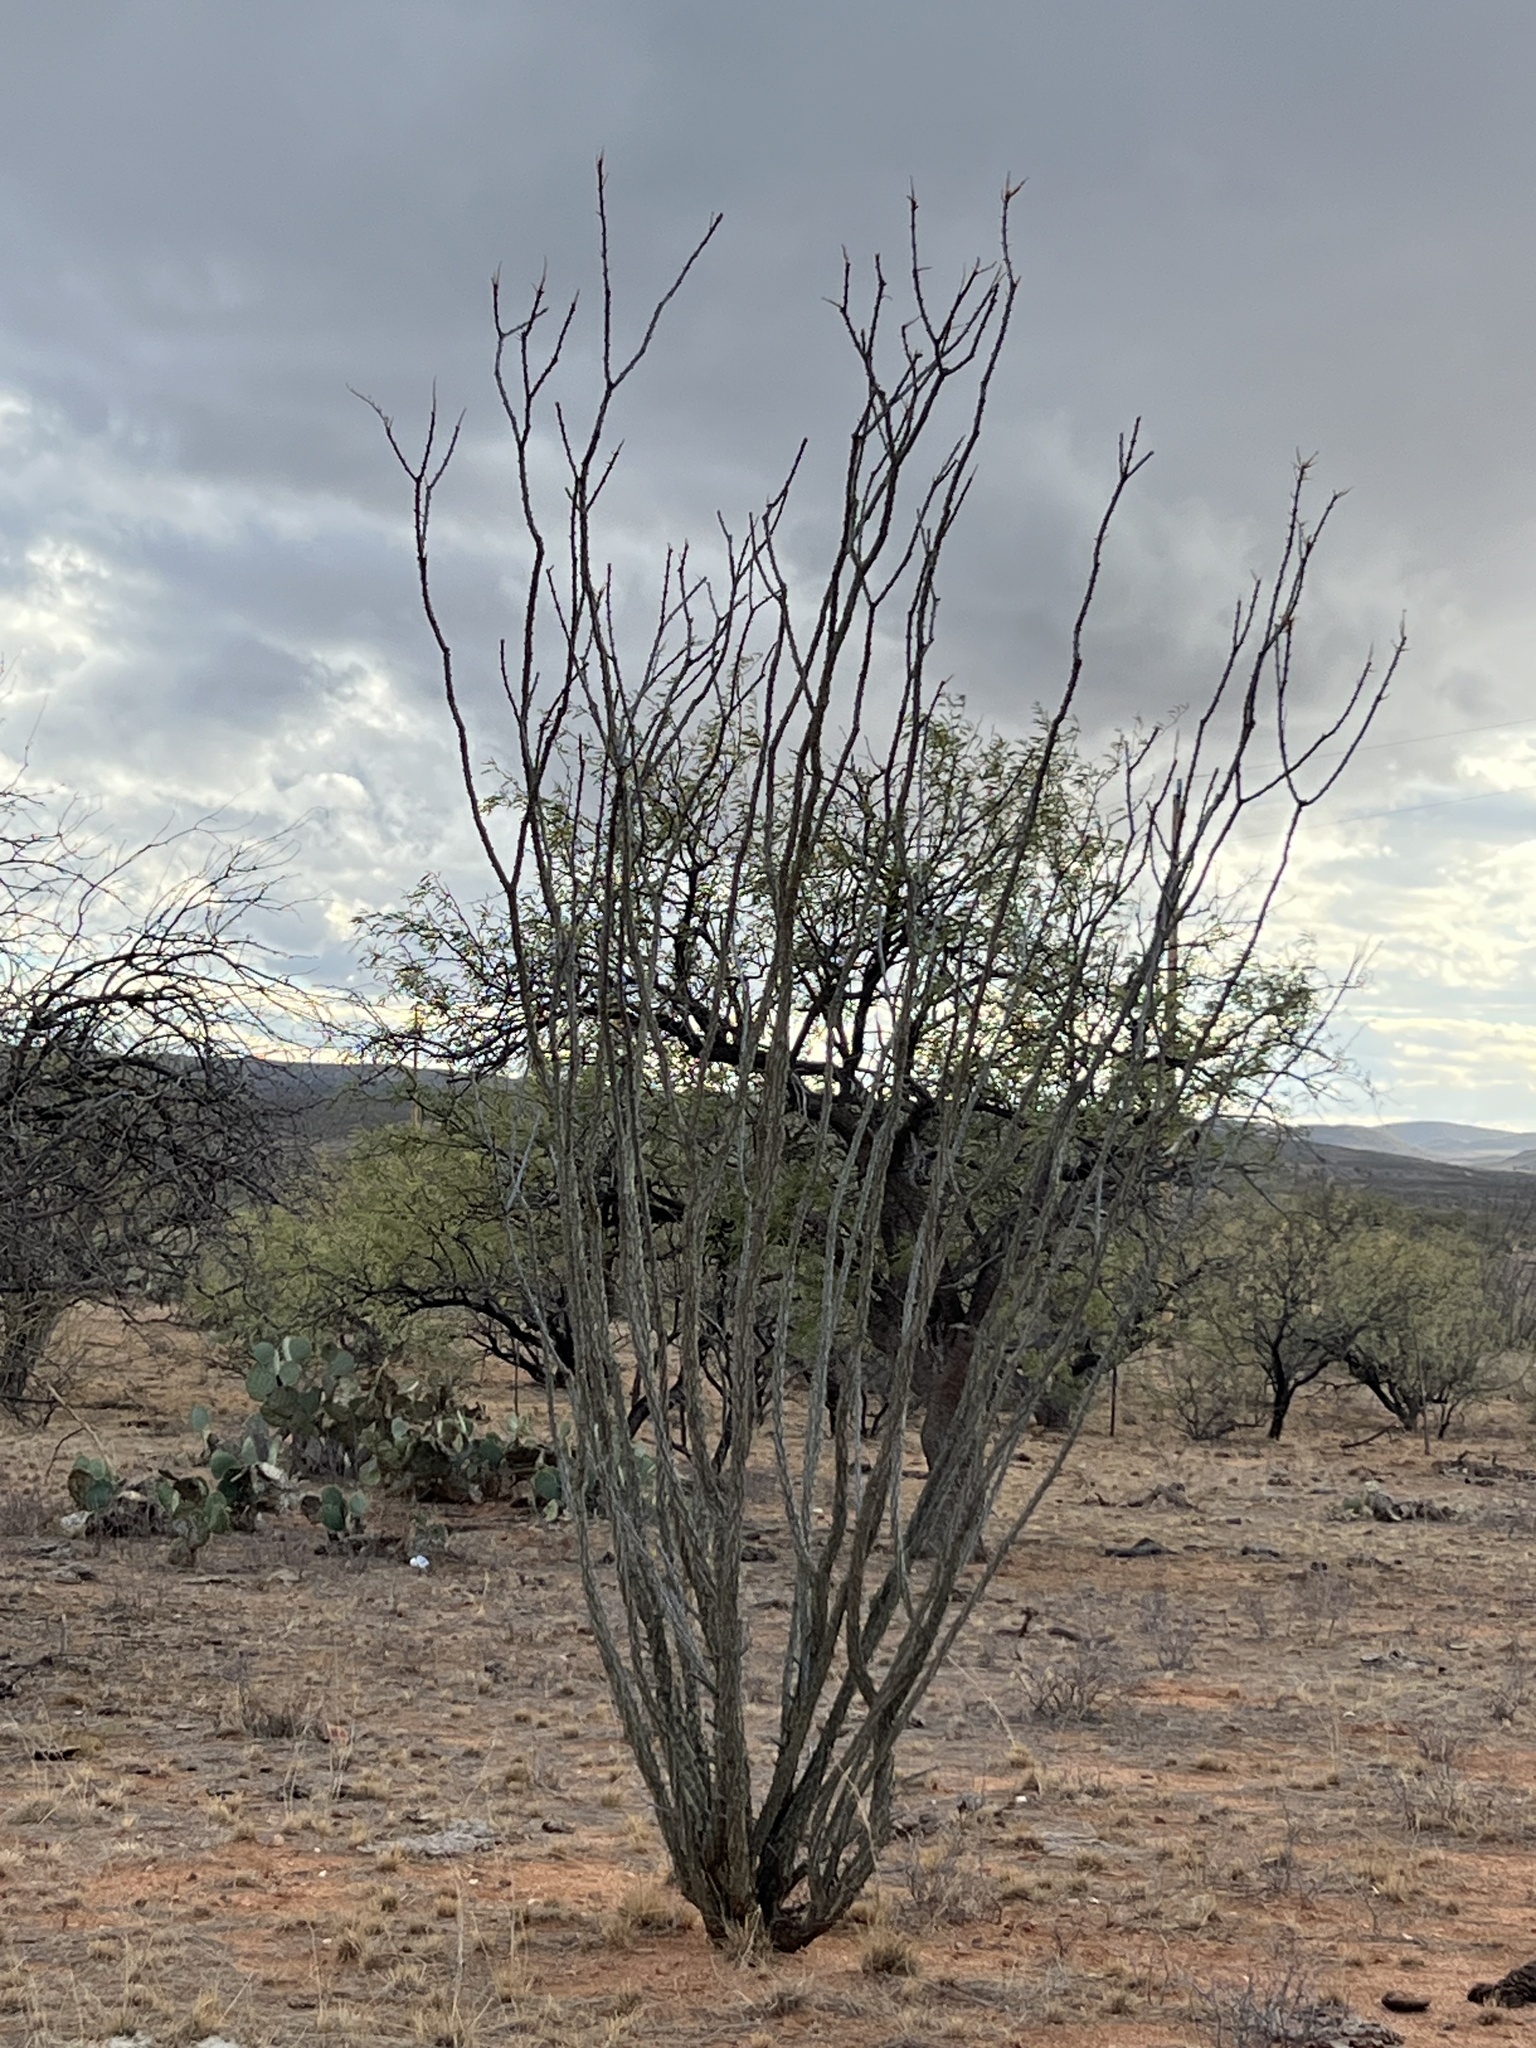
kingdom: Plantae
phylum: Tracheophyta
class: Magnoliopsida
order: Ericales
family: Fouquieriaceae
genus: Fouquieria
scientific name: Fouquieria splendens
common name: Vine-cactus
